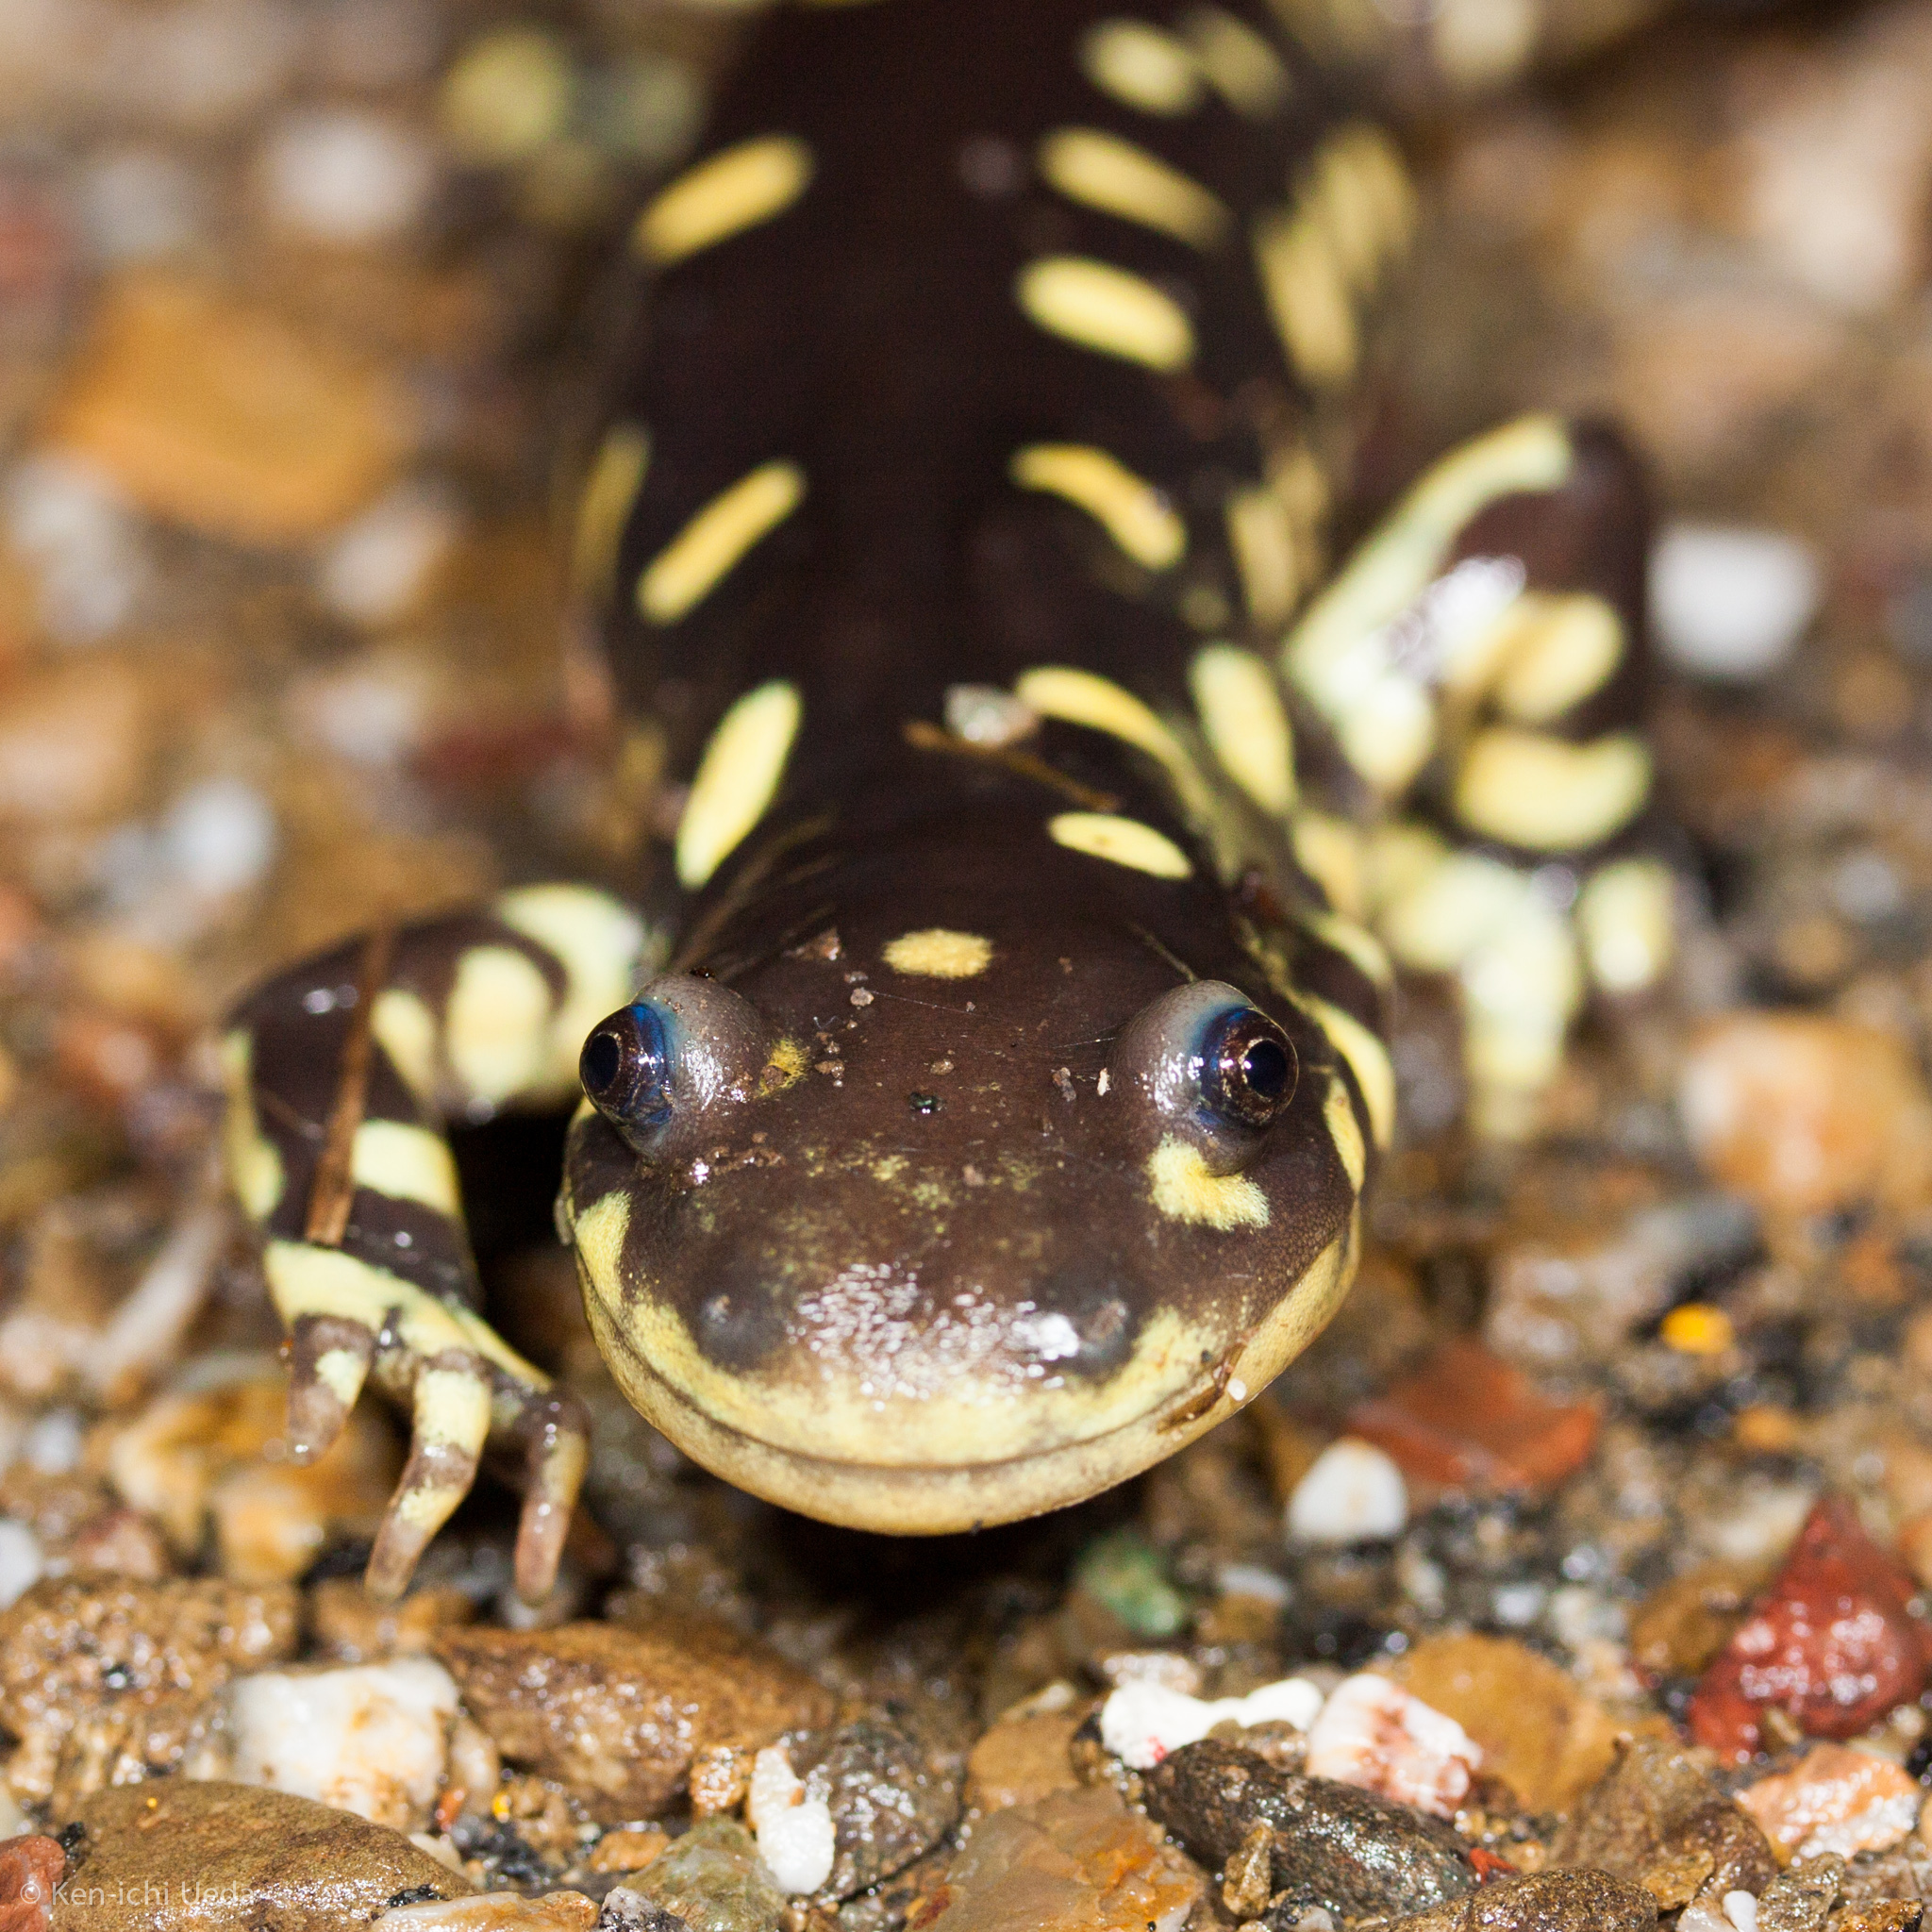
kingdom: Animalia
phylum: Chordata
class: Amphibia
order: Caudata
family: Ambystomatidae
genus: Ambystoma
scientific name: Ambystoma californiense
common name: California tiger salamander
